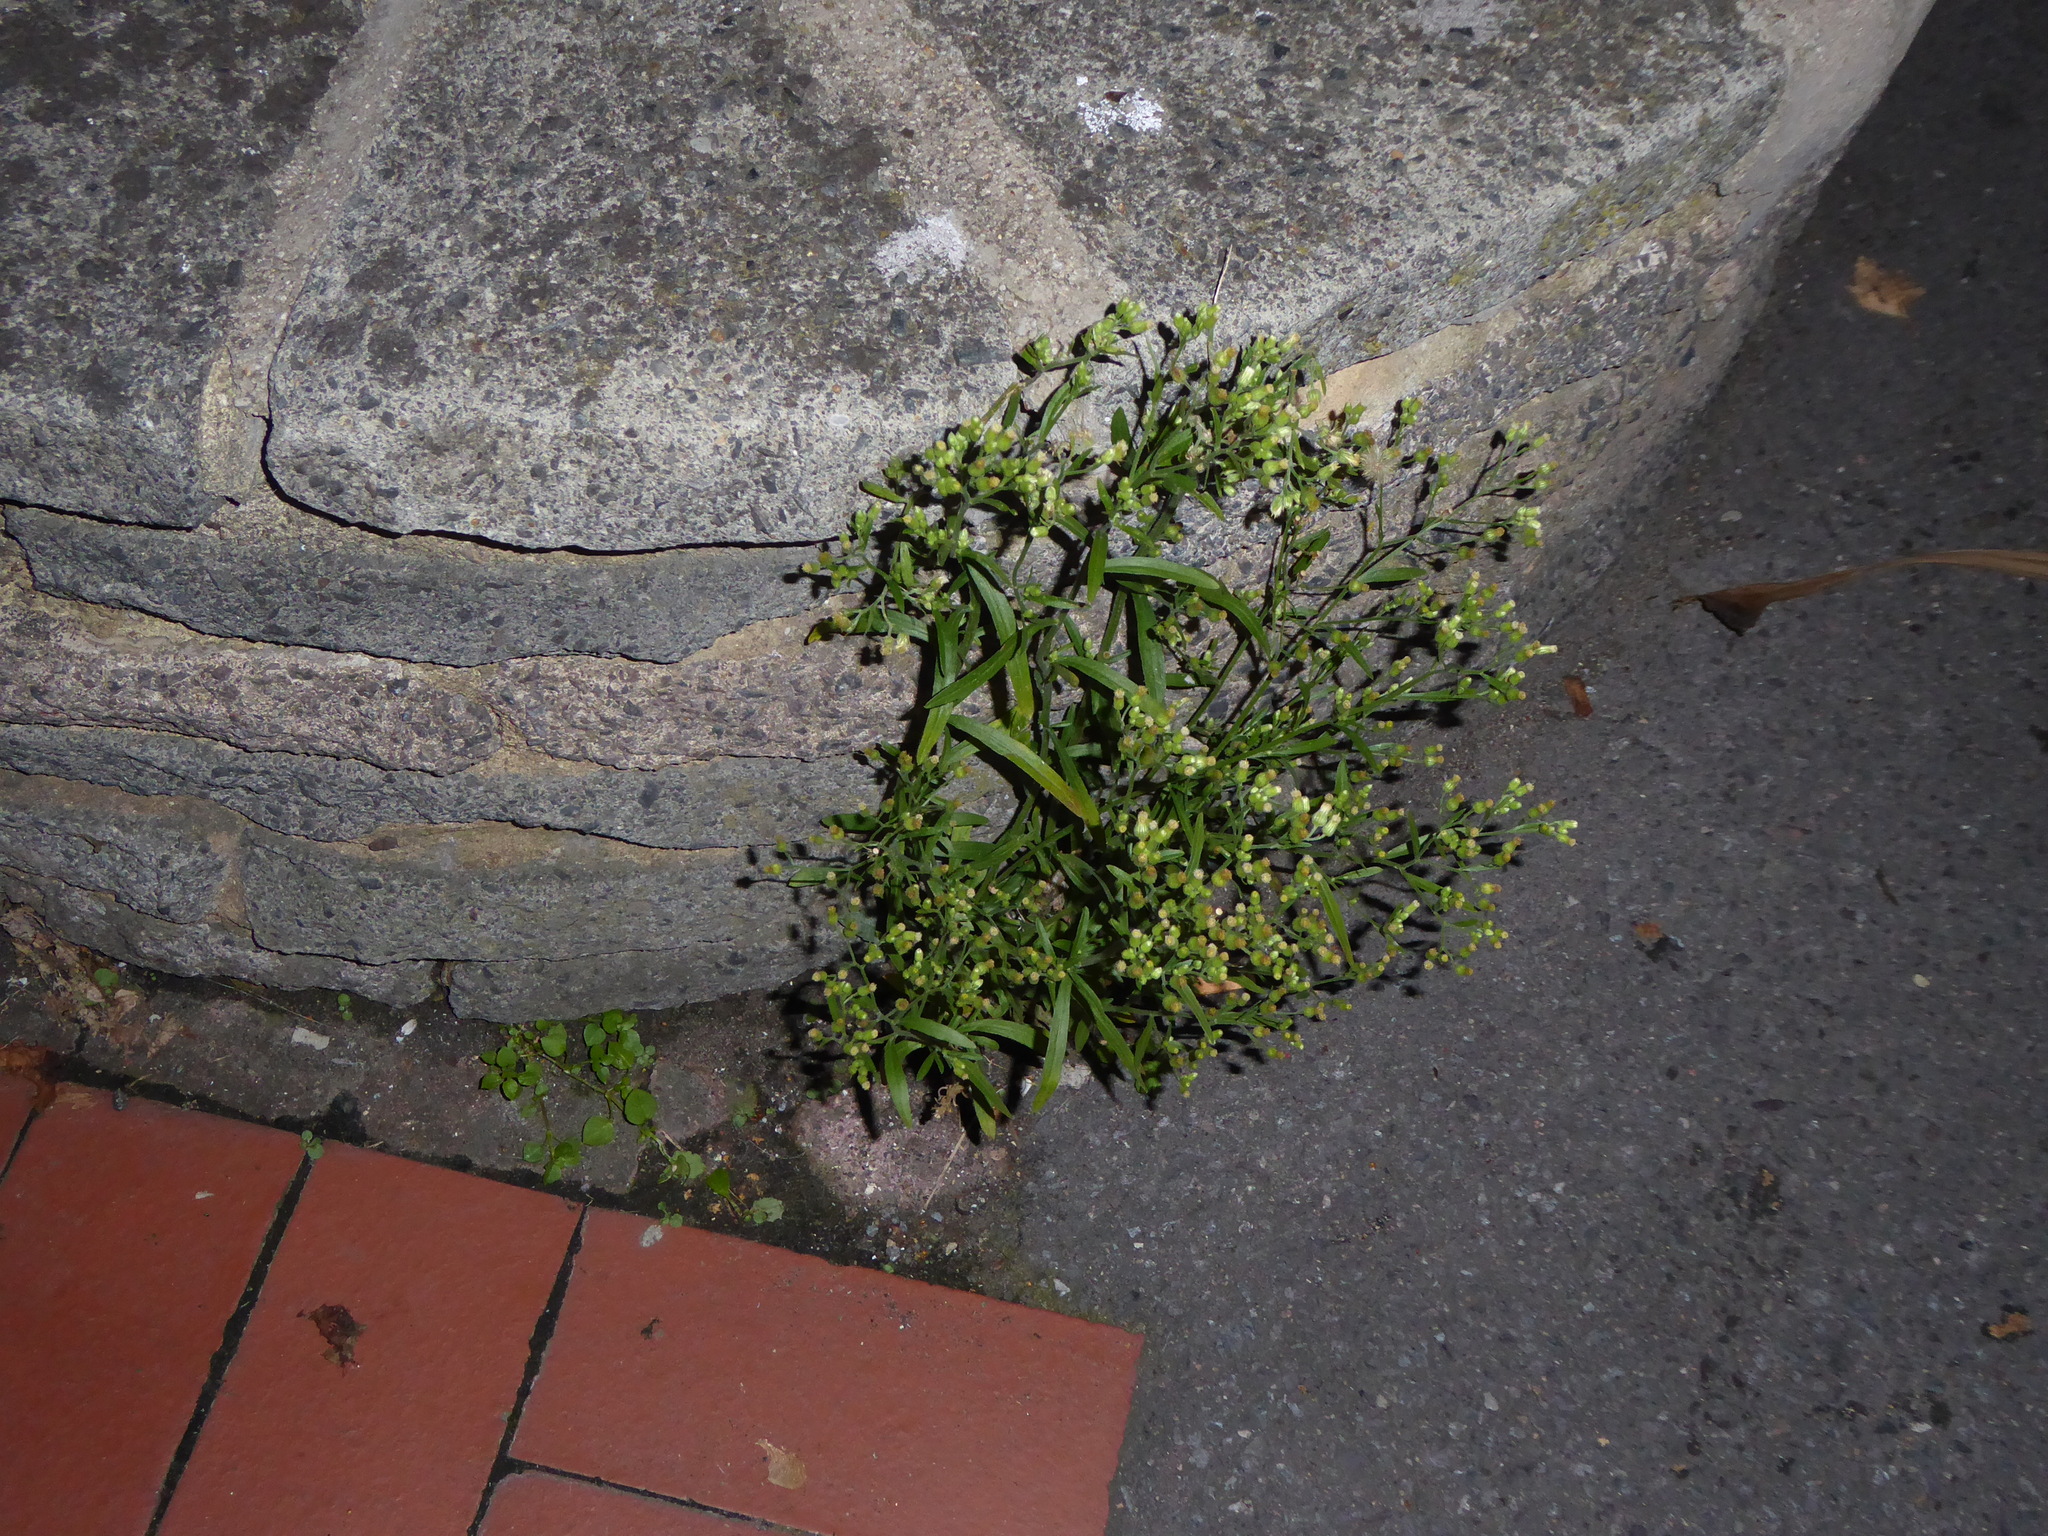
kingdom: Plantae
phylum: Tracheophyta
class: Magnoliopsida
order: Asterales
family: Asteraceae
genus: Erigeron
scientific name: Erigeron sumatrensis
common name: Daisy
